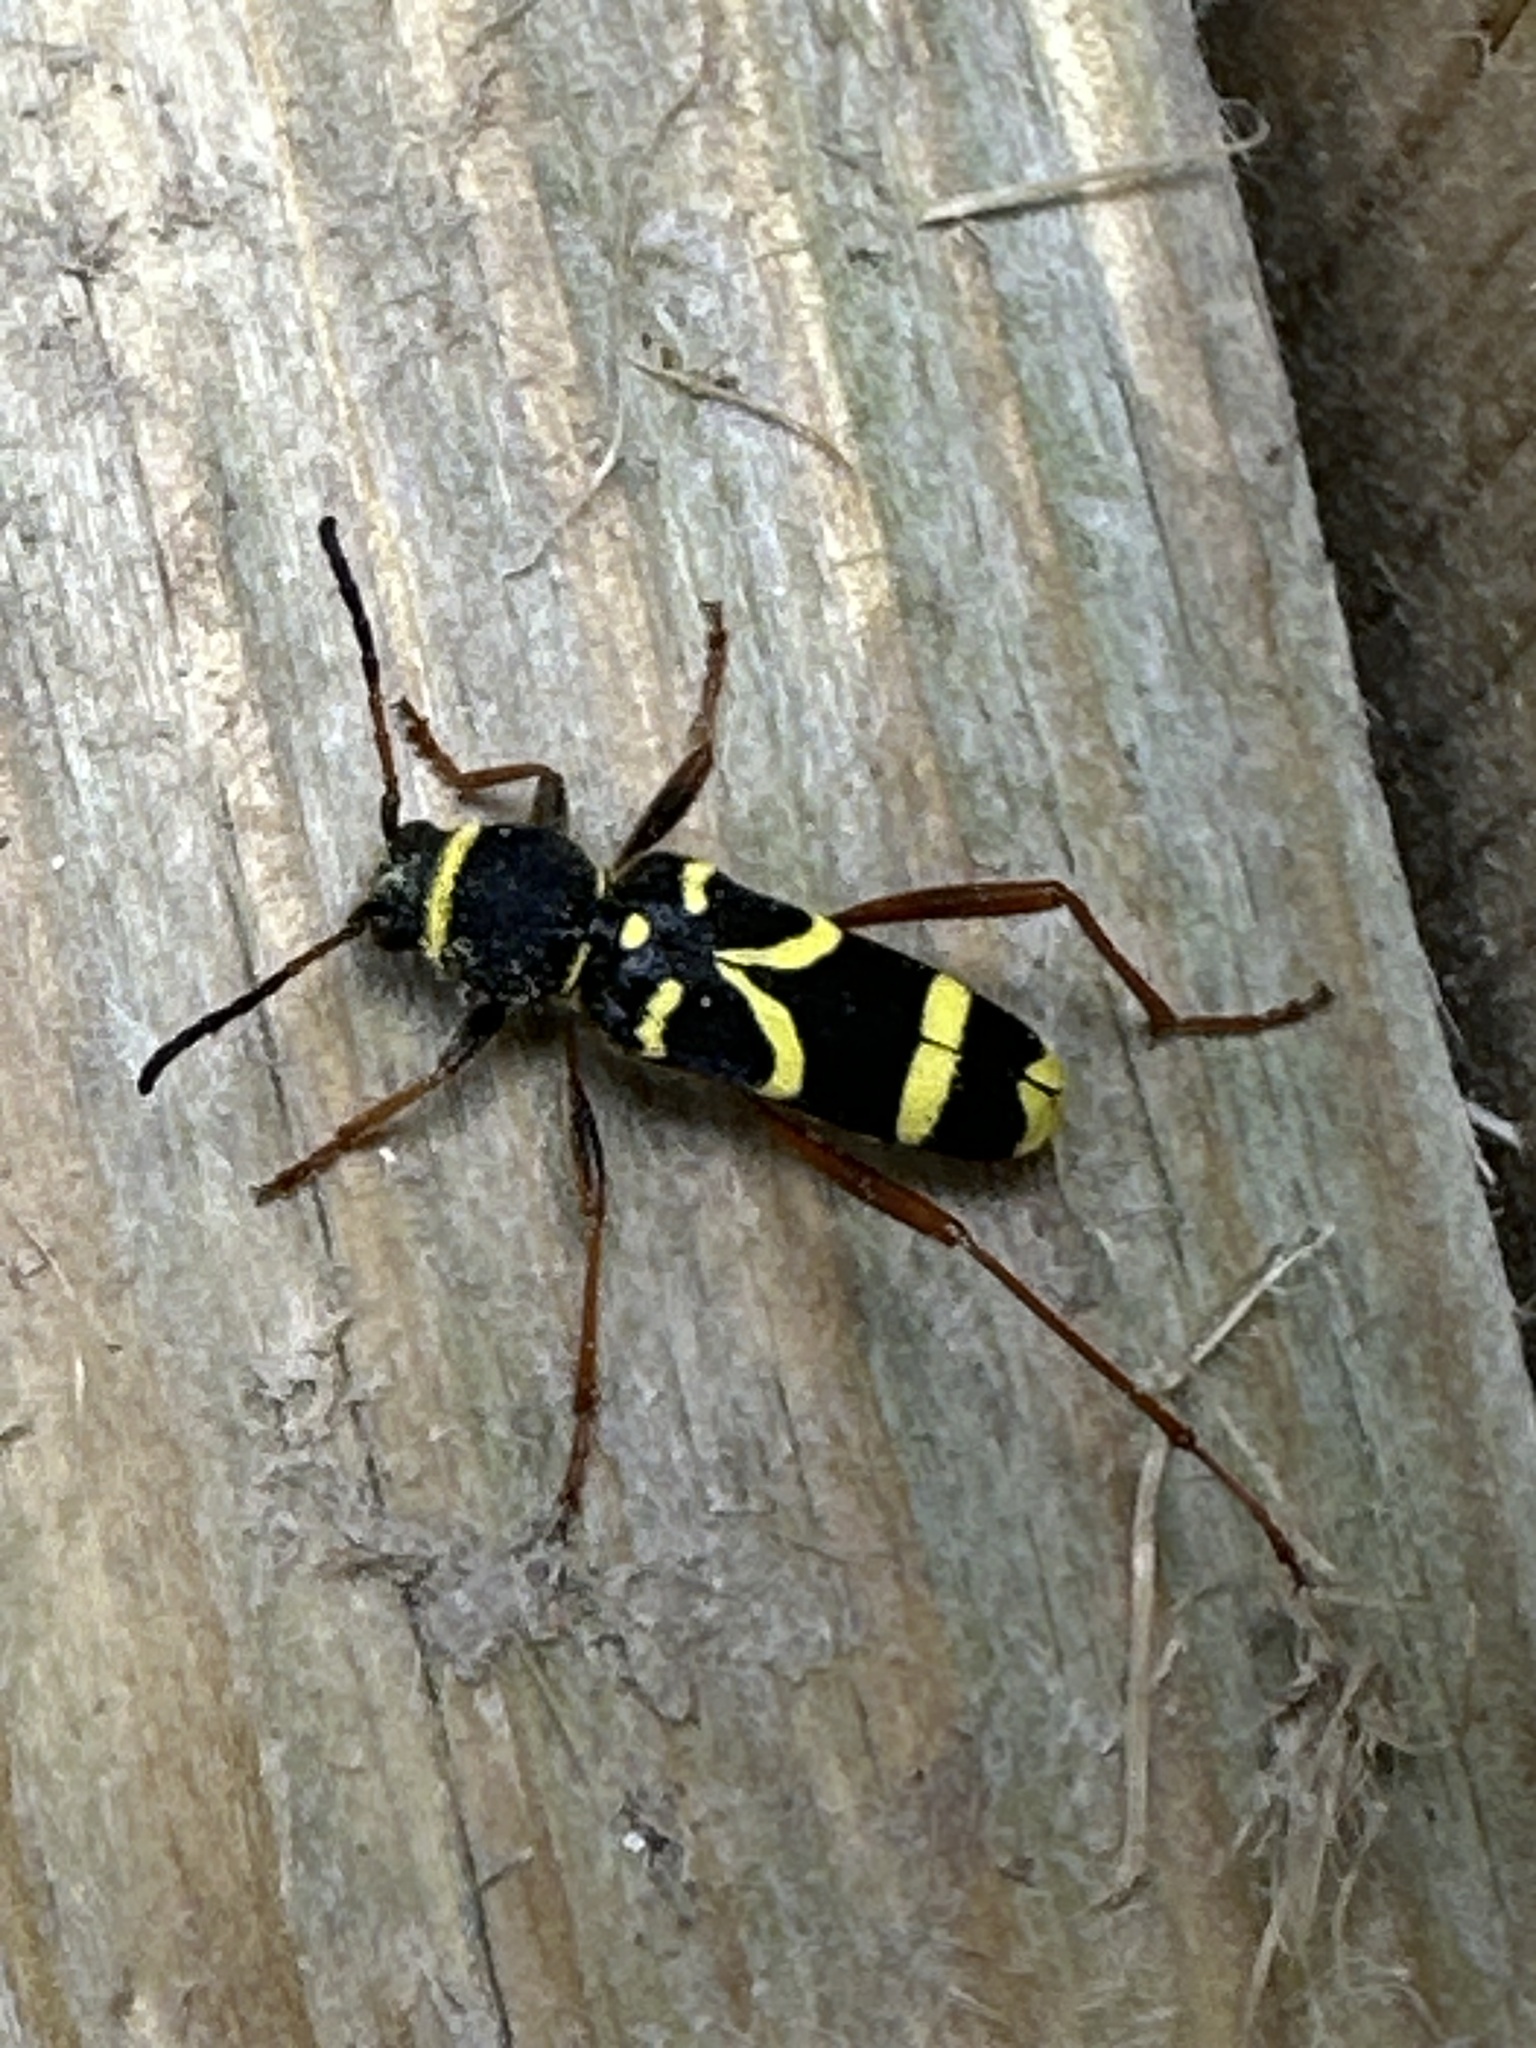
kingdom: Animalia
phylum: Arthropoda
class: Insecta
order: Coleoptera
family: Cerambycidae
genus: Clytus
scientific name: Clytus arietis
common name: Wasp beetle
